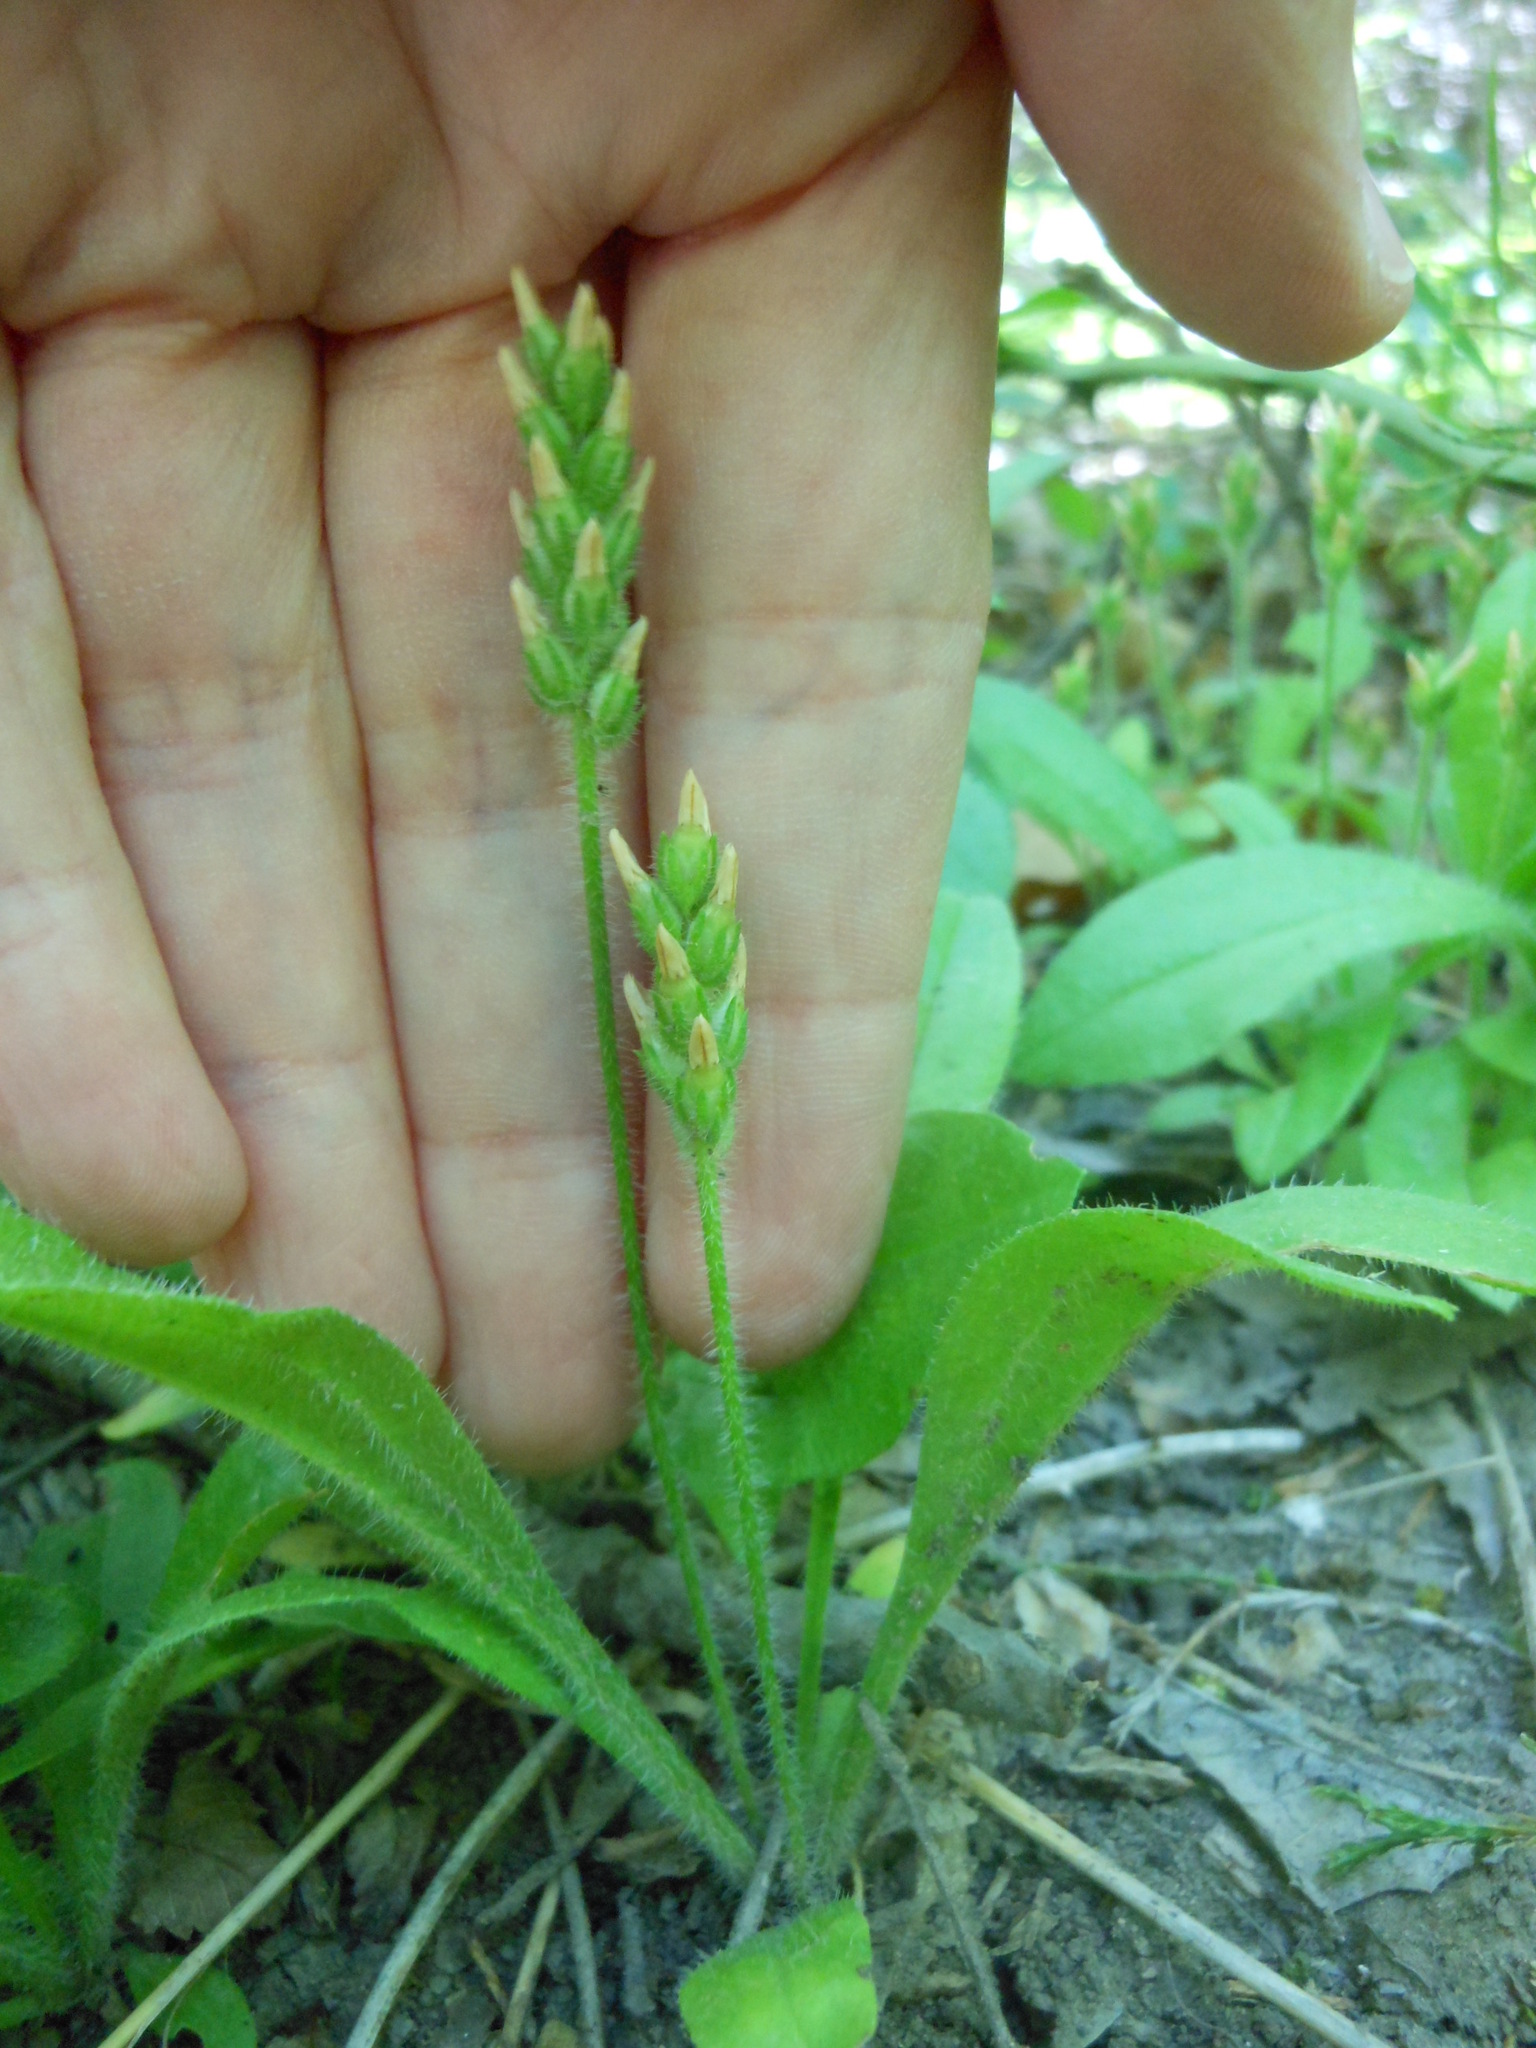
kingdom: Plantae
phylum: Tracheophyta
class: Magnoliopsida
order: Lamiales
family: Plantaginaceae
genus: Plantago
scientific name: Plantago virginica
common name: Hoary plantain
